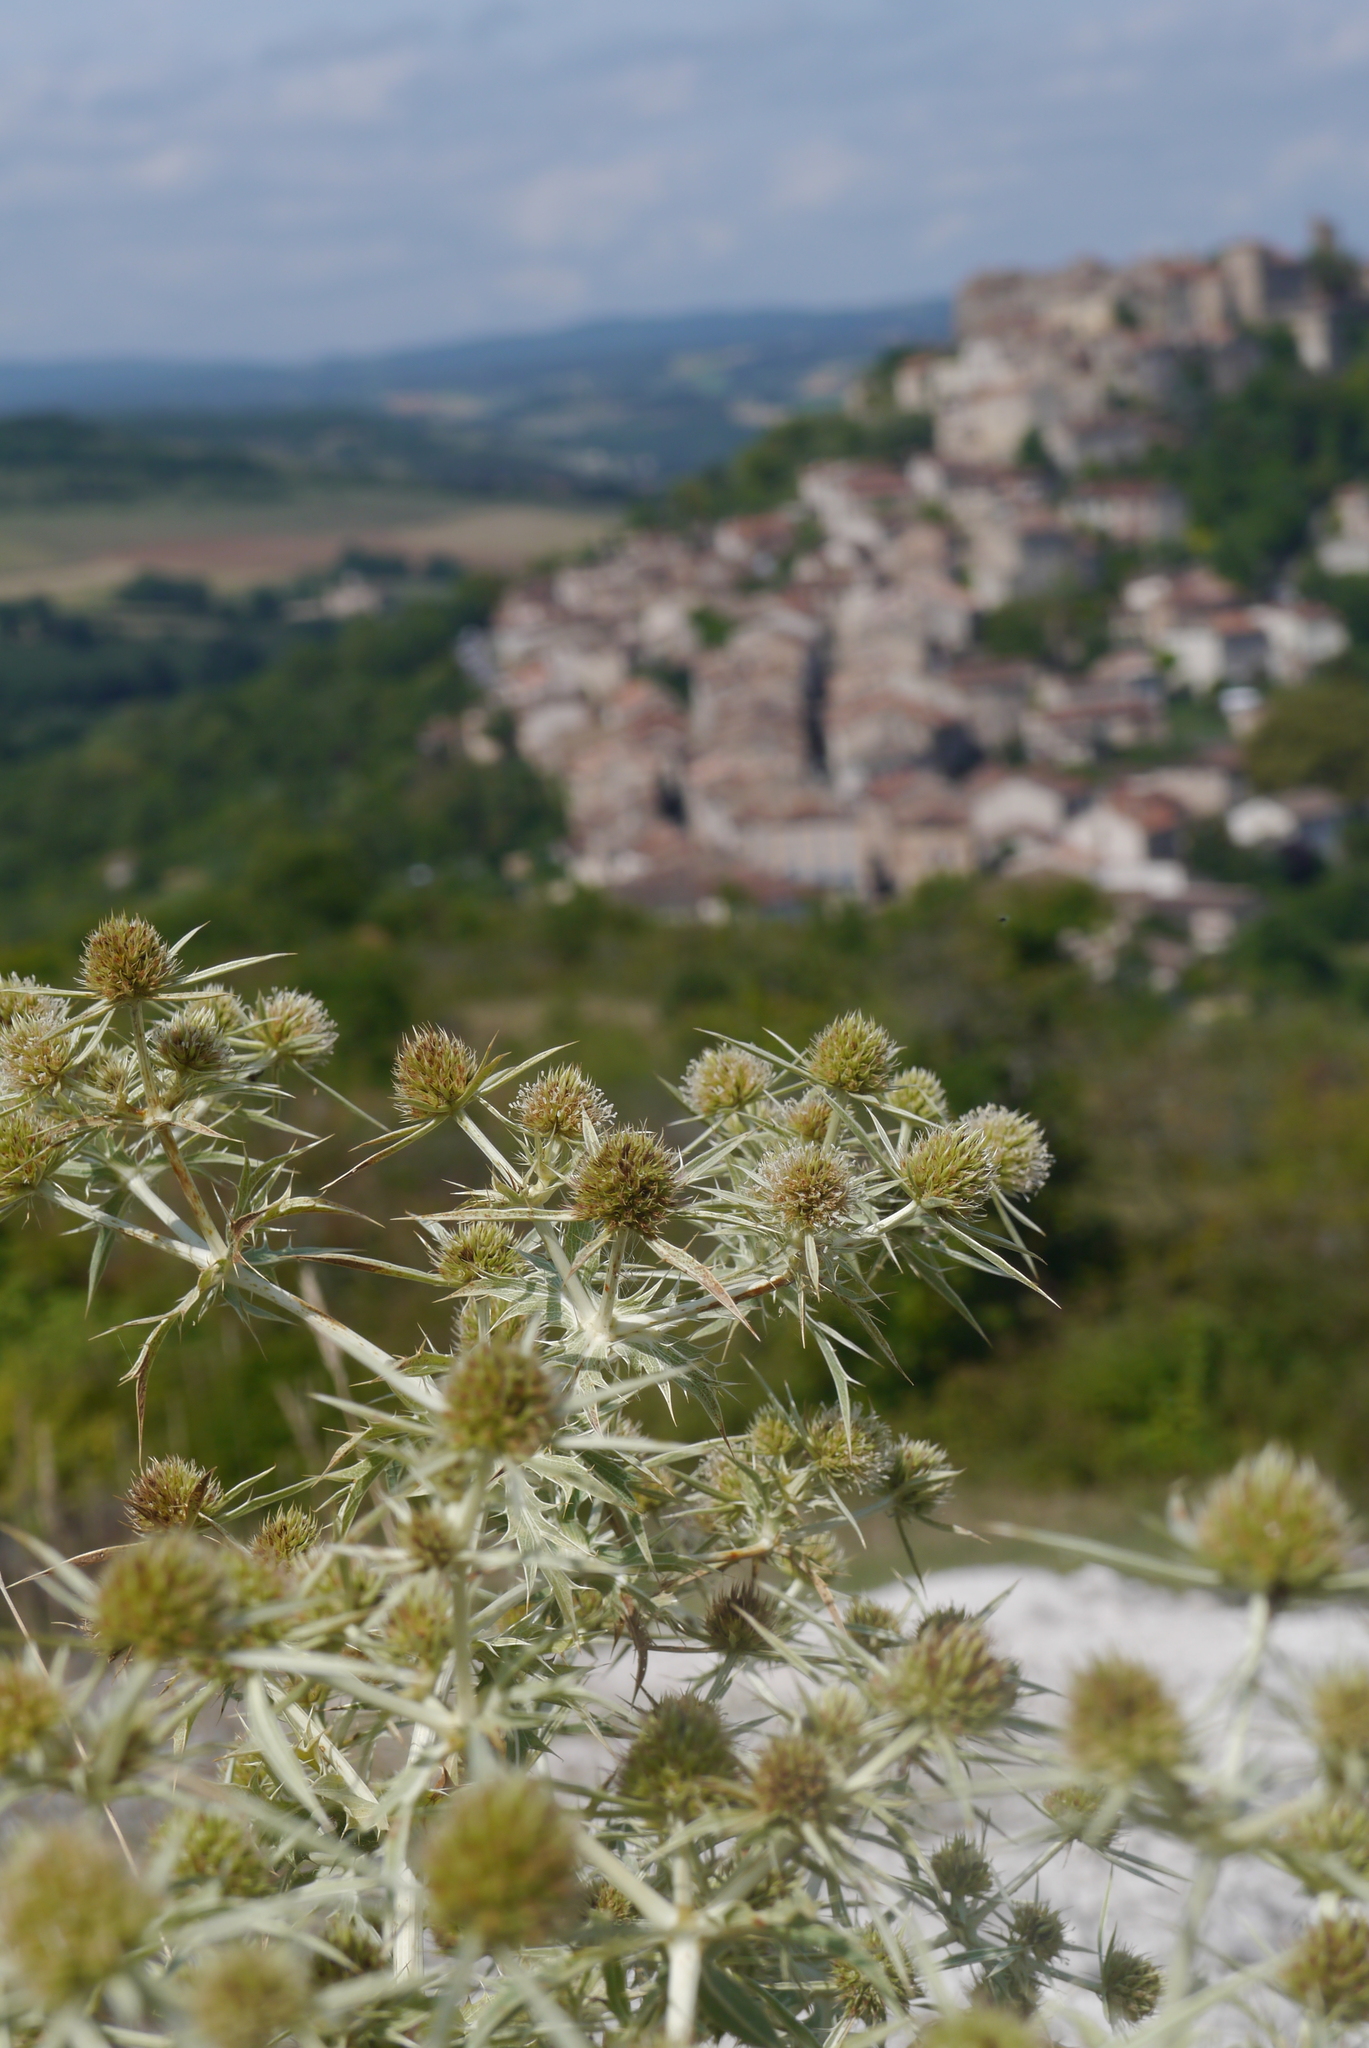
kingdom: Plantae
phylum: Tracheophyta
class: Magnoliopsida
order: Apiales
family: Apiaceae
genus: Eryngium
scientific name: Eryngium campestre
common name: Field eryngo
